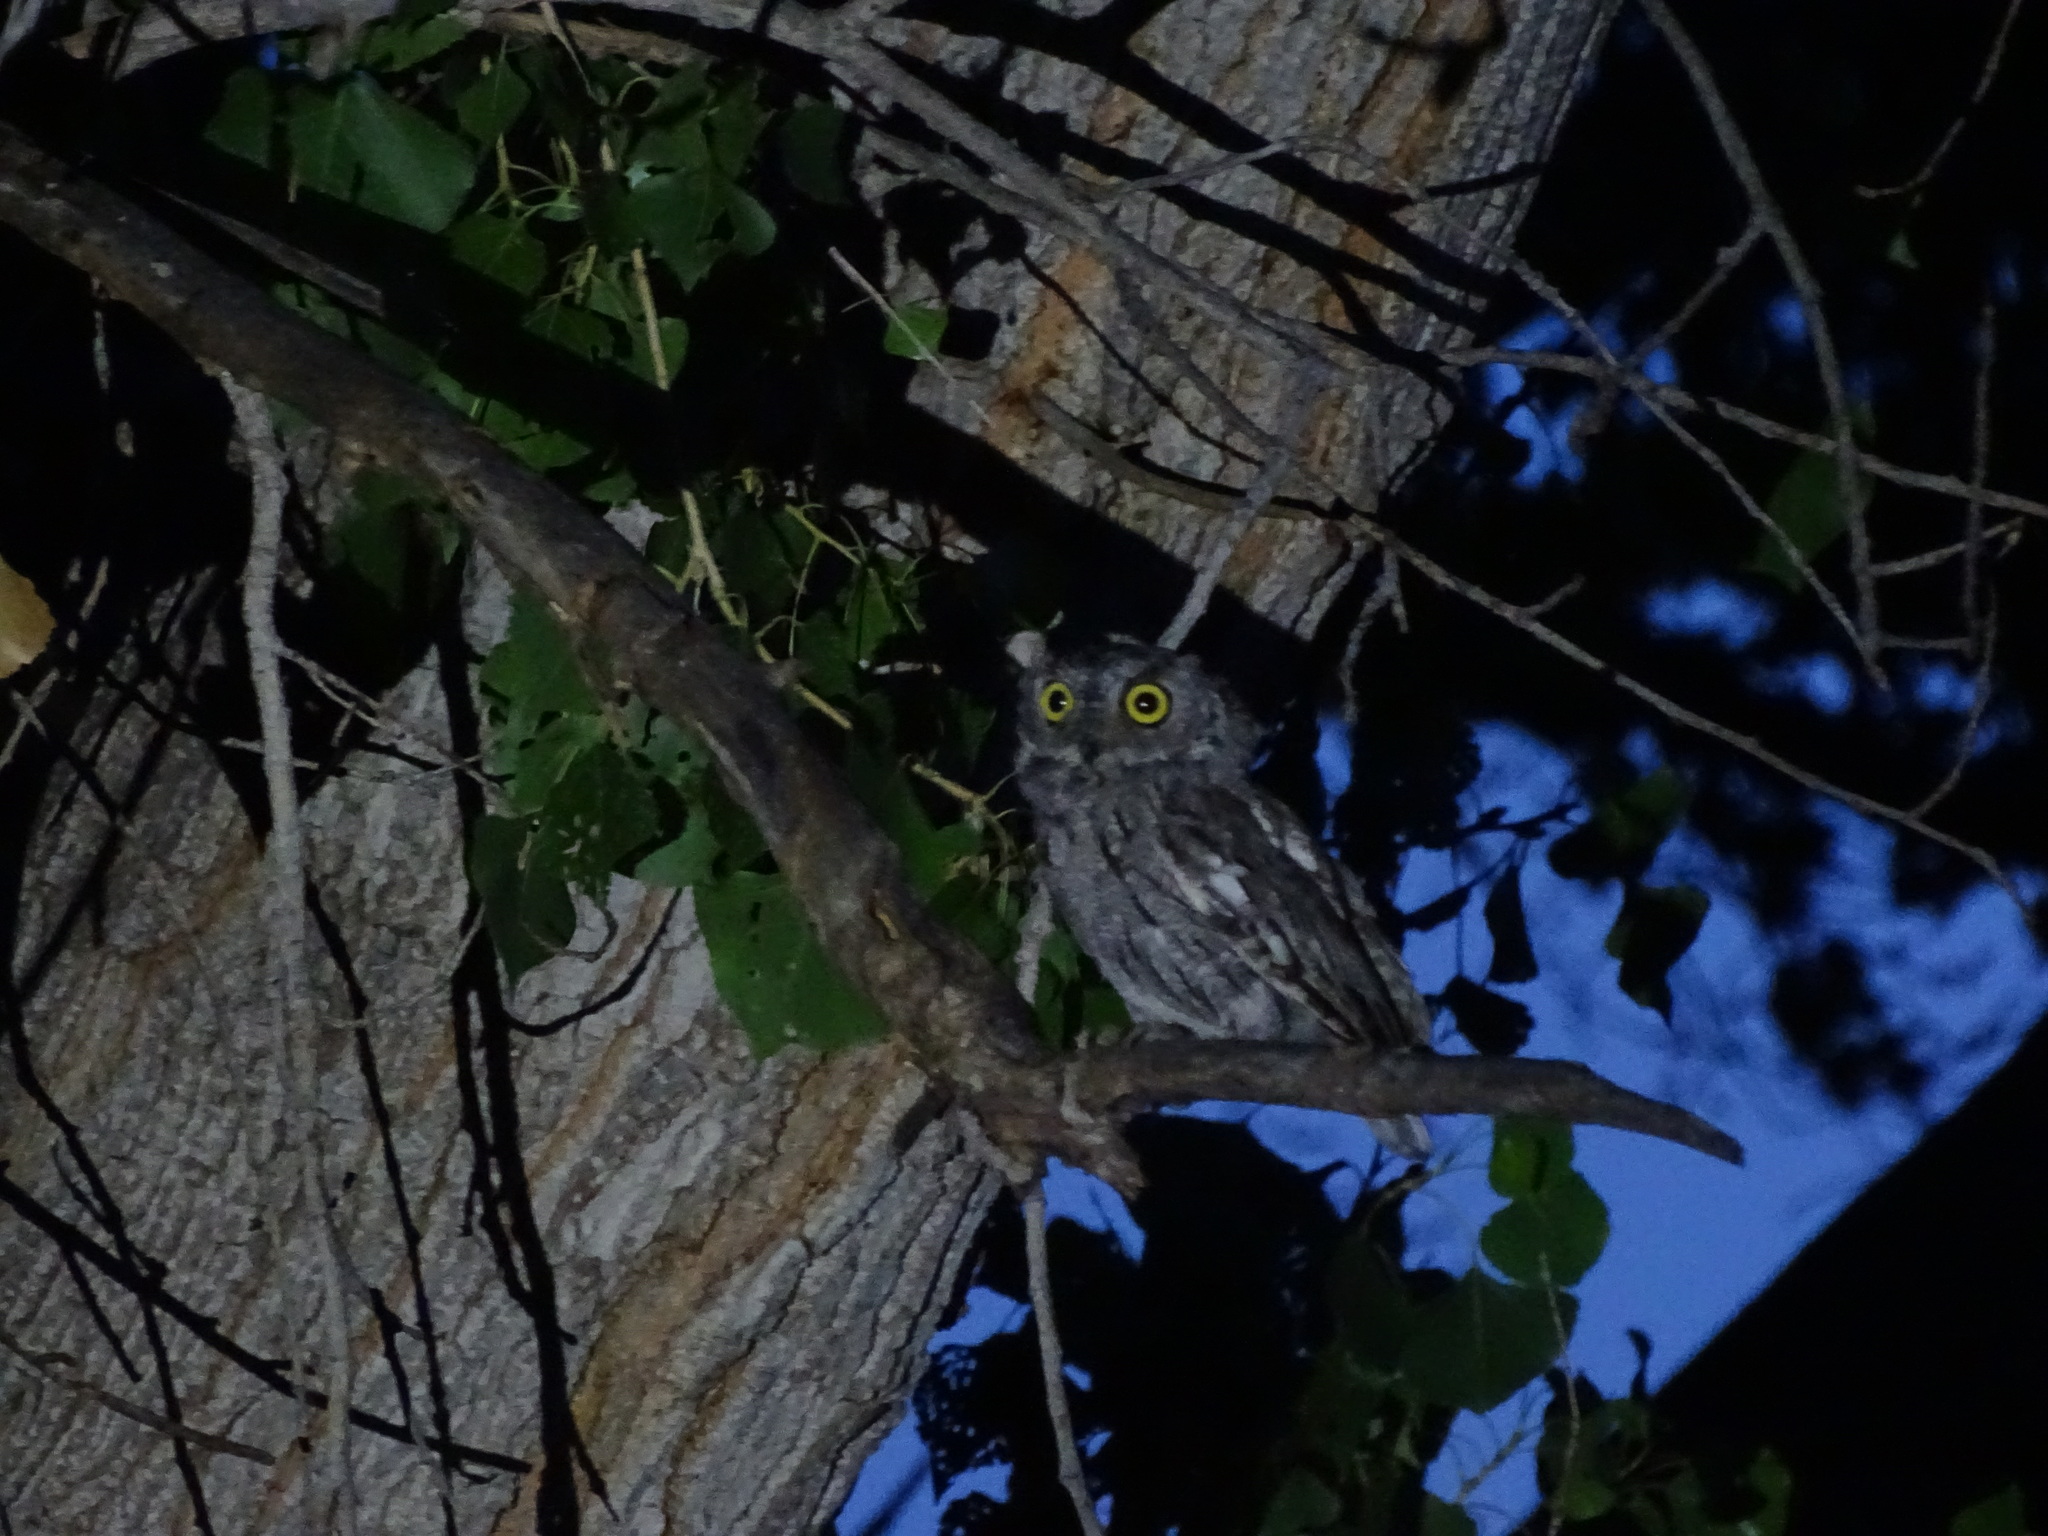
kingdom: Animalia
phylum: Chordata
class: Aves
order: Strigiformes
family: Strigidae
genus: Megascops
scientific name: Megascops kennicottii
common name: Western screech-owl
